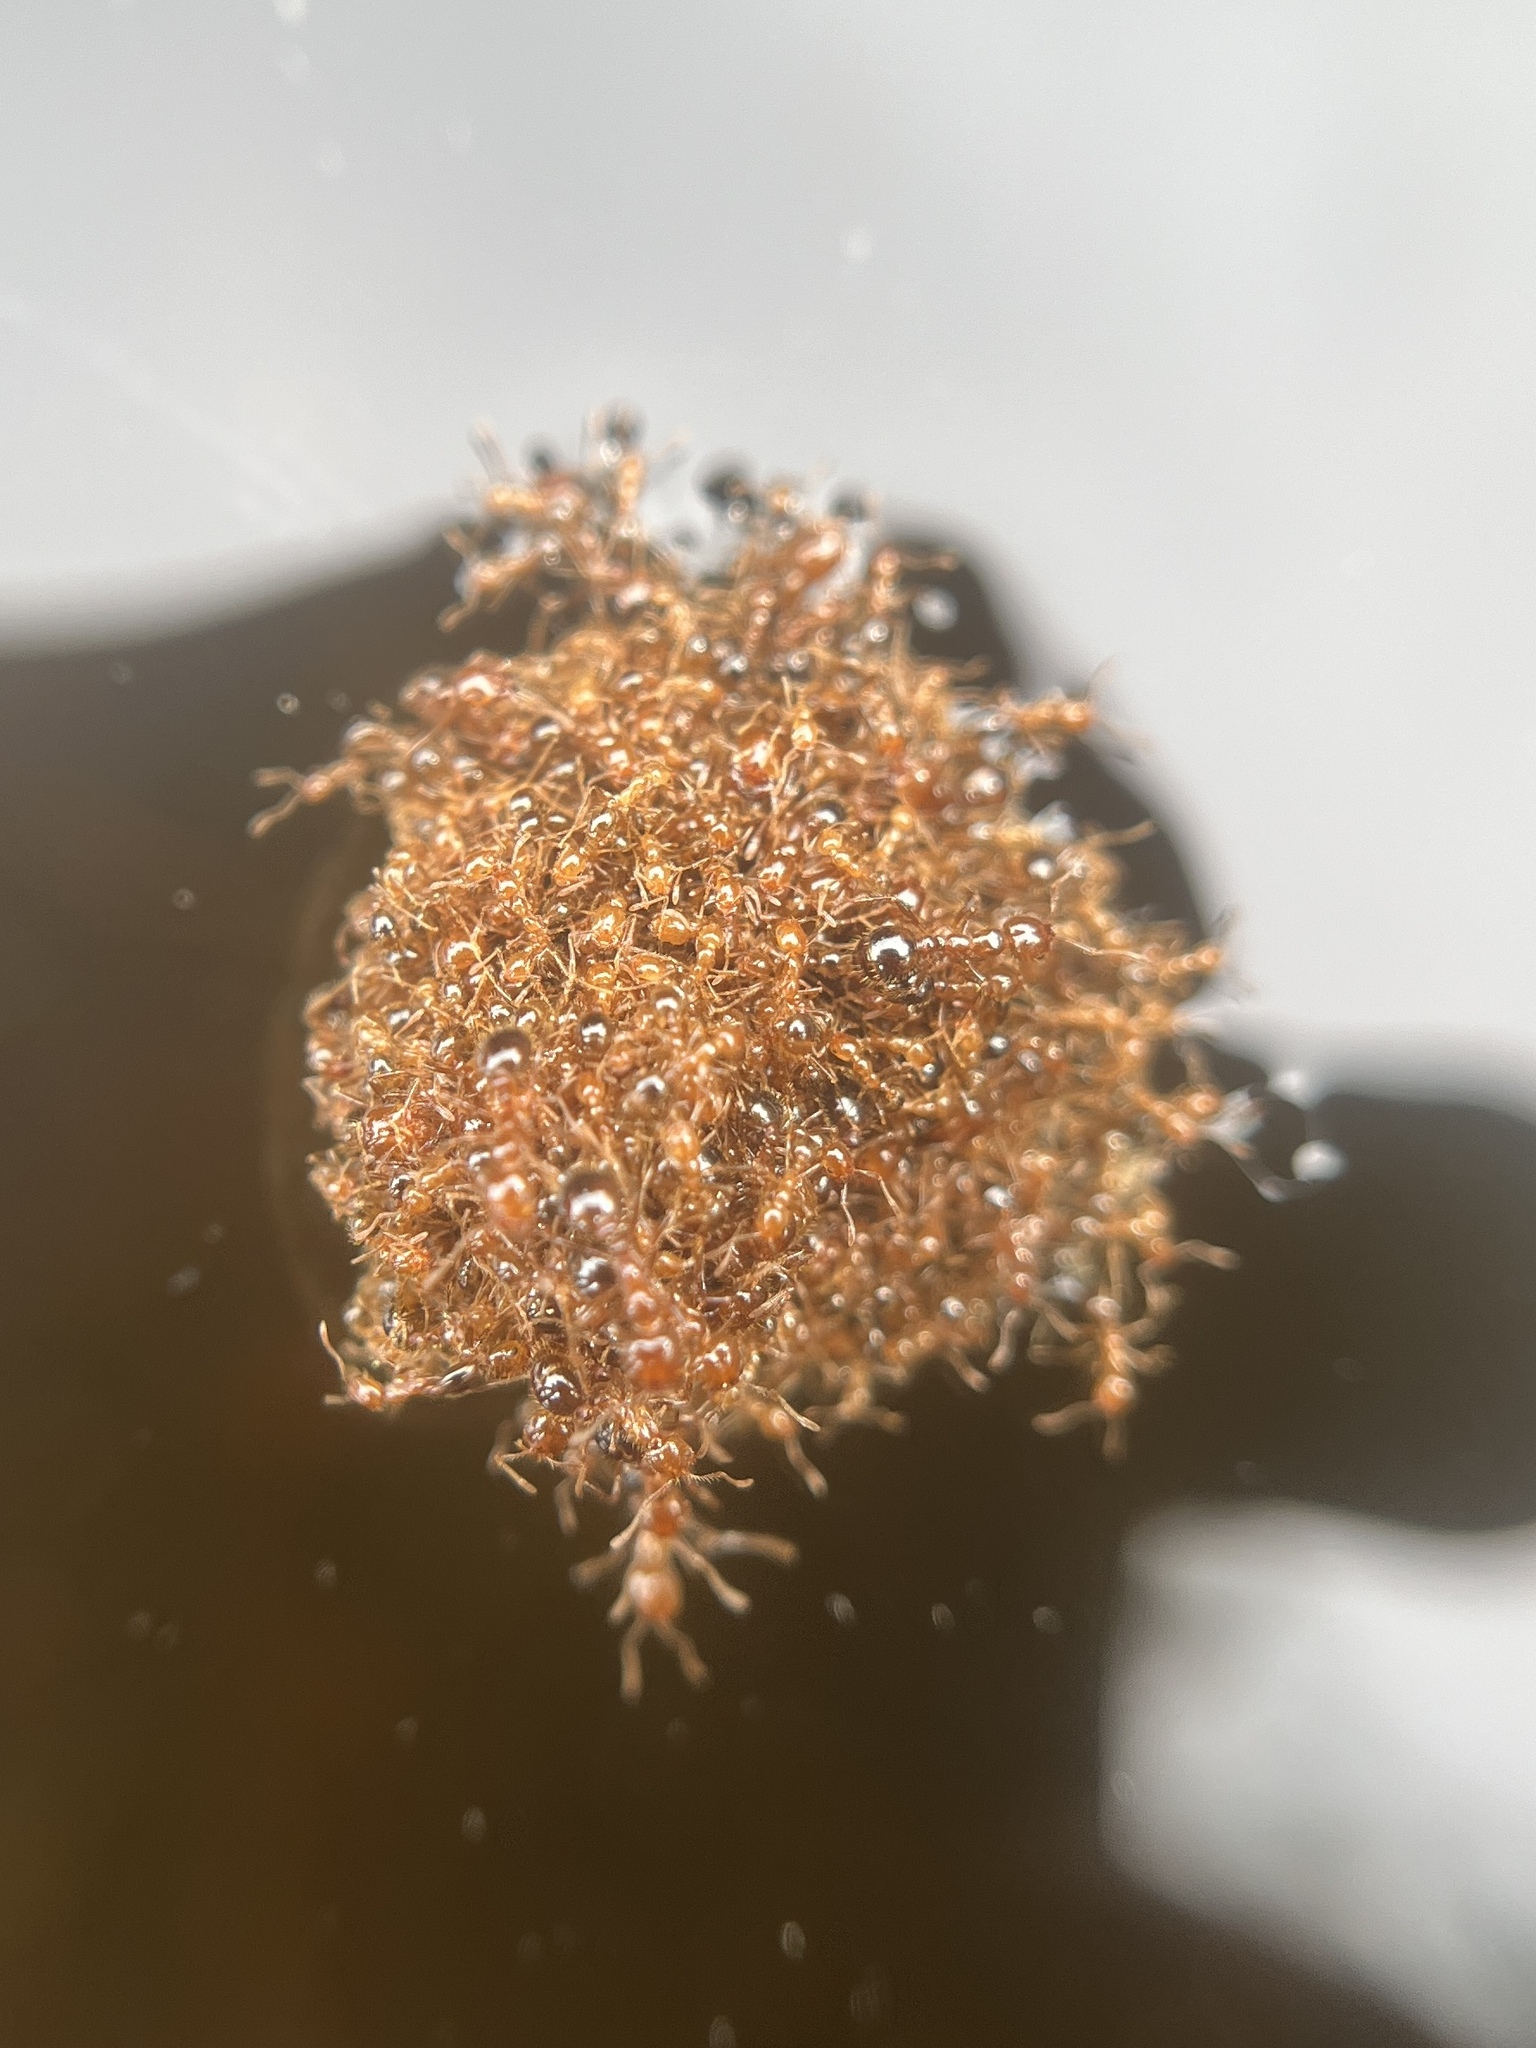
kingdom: Animalia
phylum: Arthropoda
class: Insecta
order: Hymenoptera
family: Formicidae
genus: Solenopsis
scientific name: Solenopsis invicta
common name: Red imported fire ant
